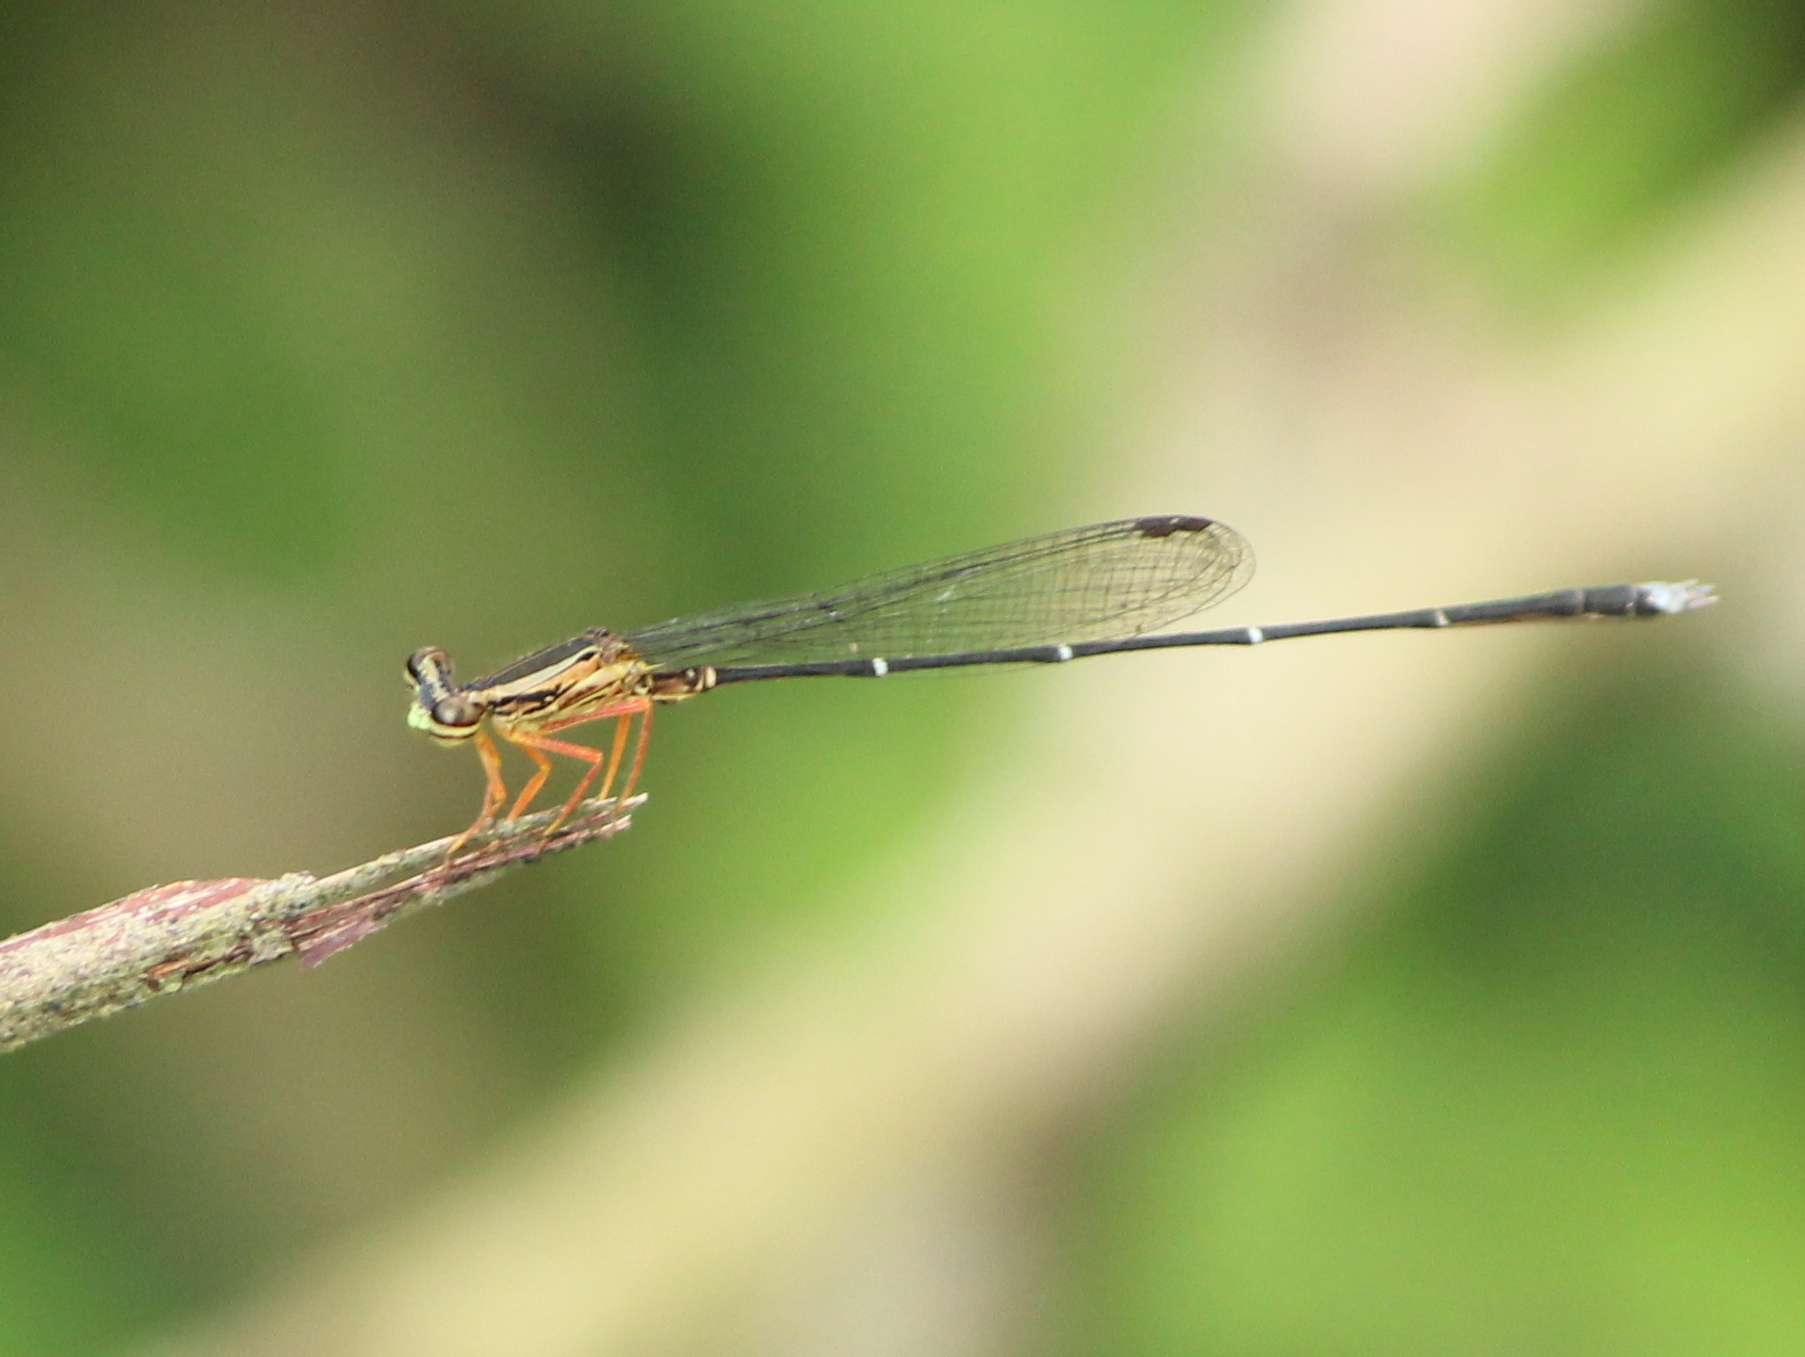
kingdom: Animalia
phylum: Arthropoda
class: Insecta
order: Odonata
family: Platycnemididae
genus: Copera
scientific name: Copera vittata
